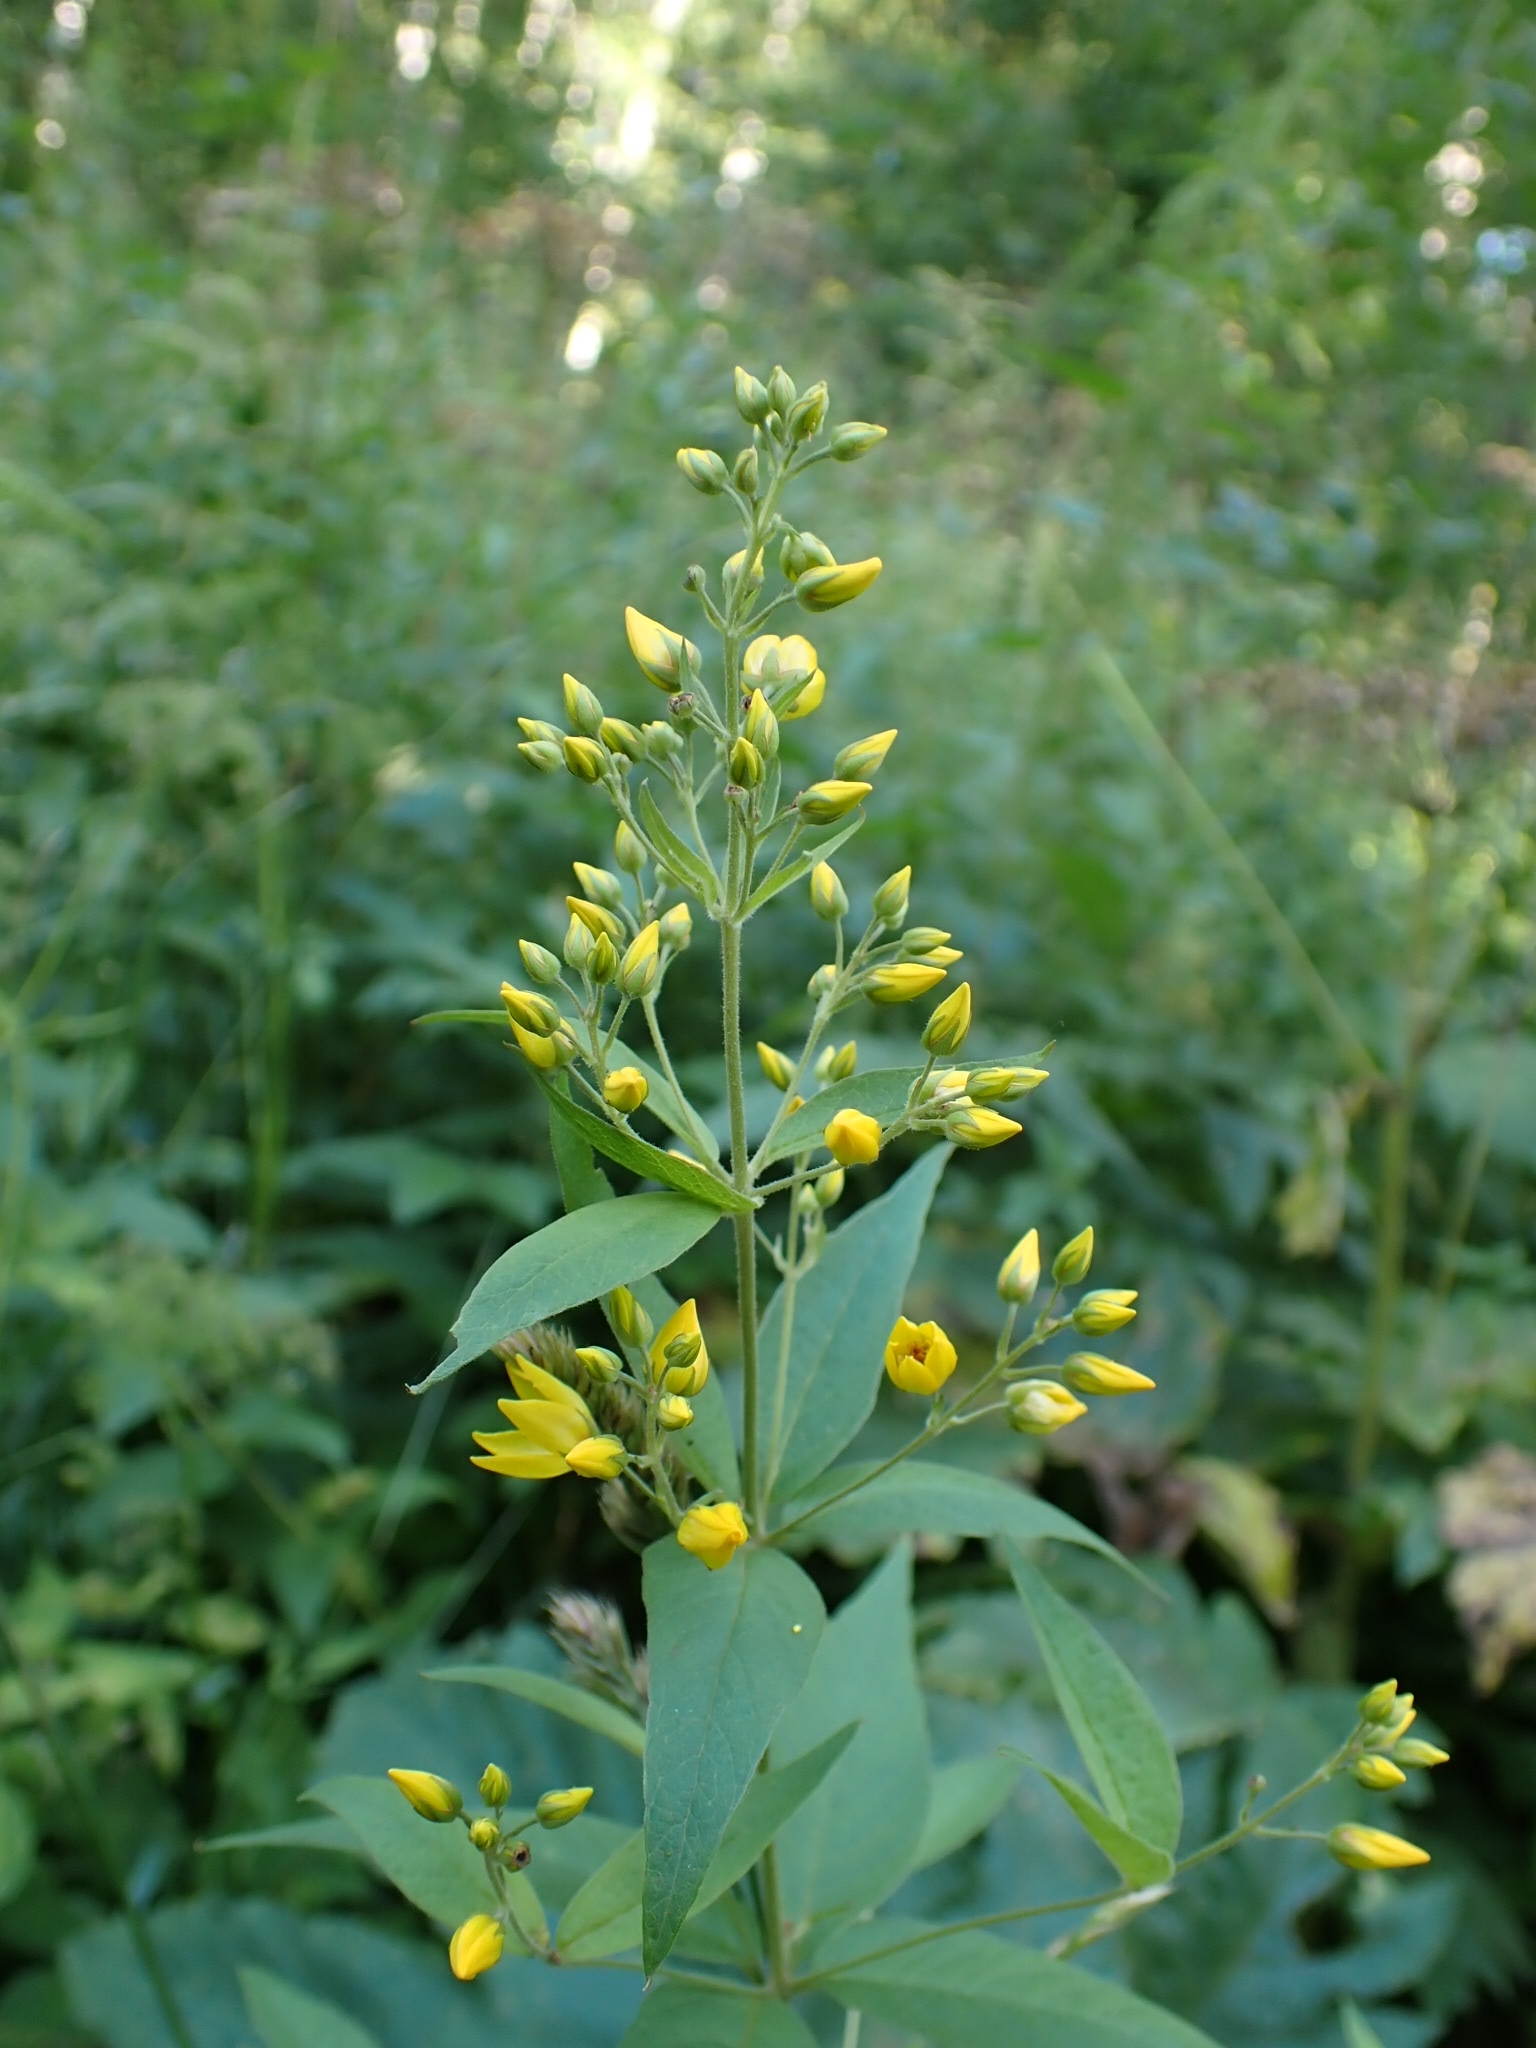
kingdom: Plantae
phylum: Tracheophyta
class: Magnoliopsida
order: Ericales
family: Primulaceae
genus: Lysimachia
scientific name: Lysimachia vulgaris
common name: Yellow loosestrife
